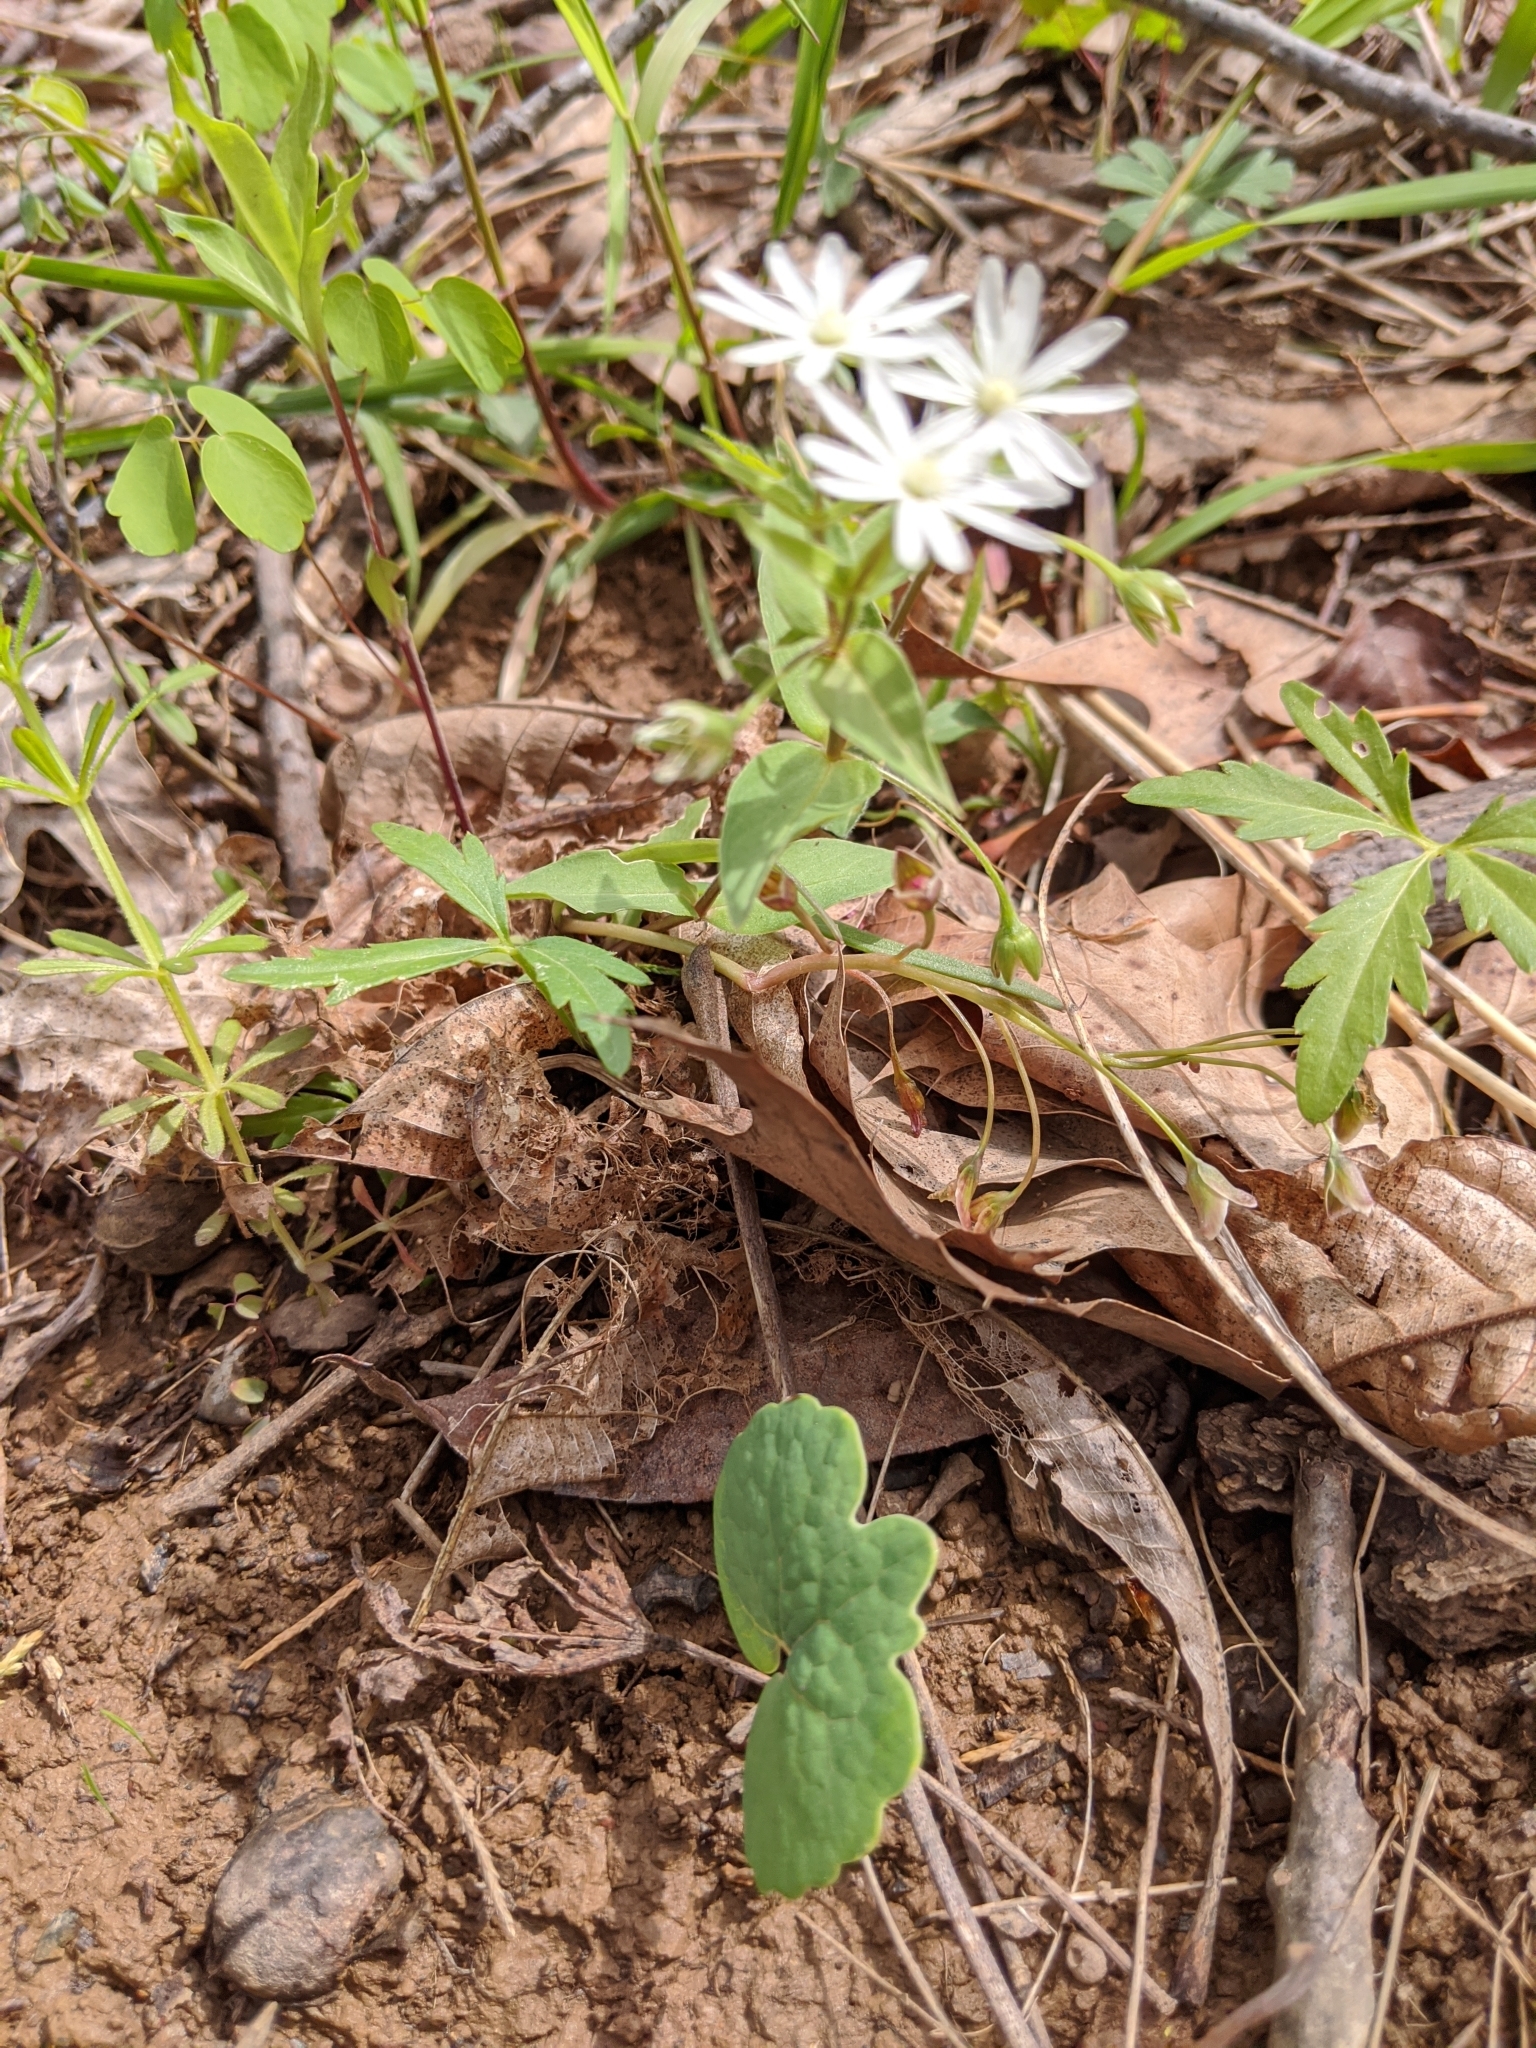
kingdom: Plantae
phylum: Tracheophyta
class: Magnoliopsida
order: Caryophyllales
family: Caryophyllaceae
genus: Stellaria
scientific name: Stellaria pubera
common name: Star chickweed
